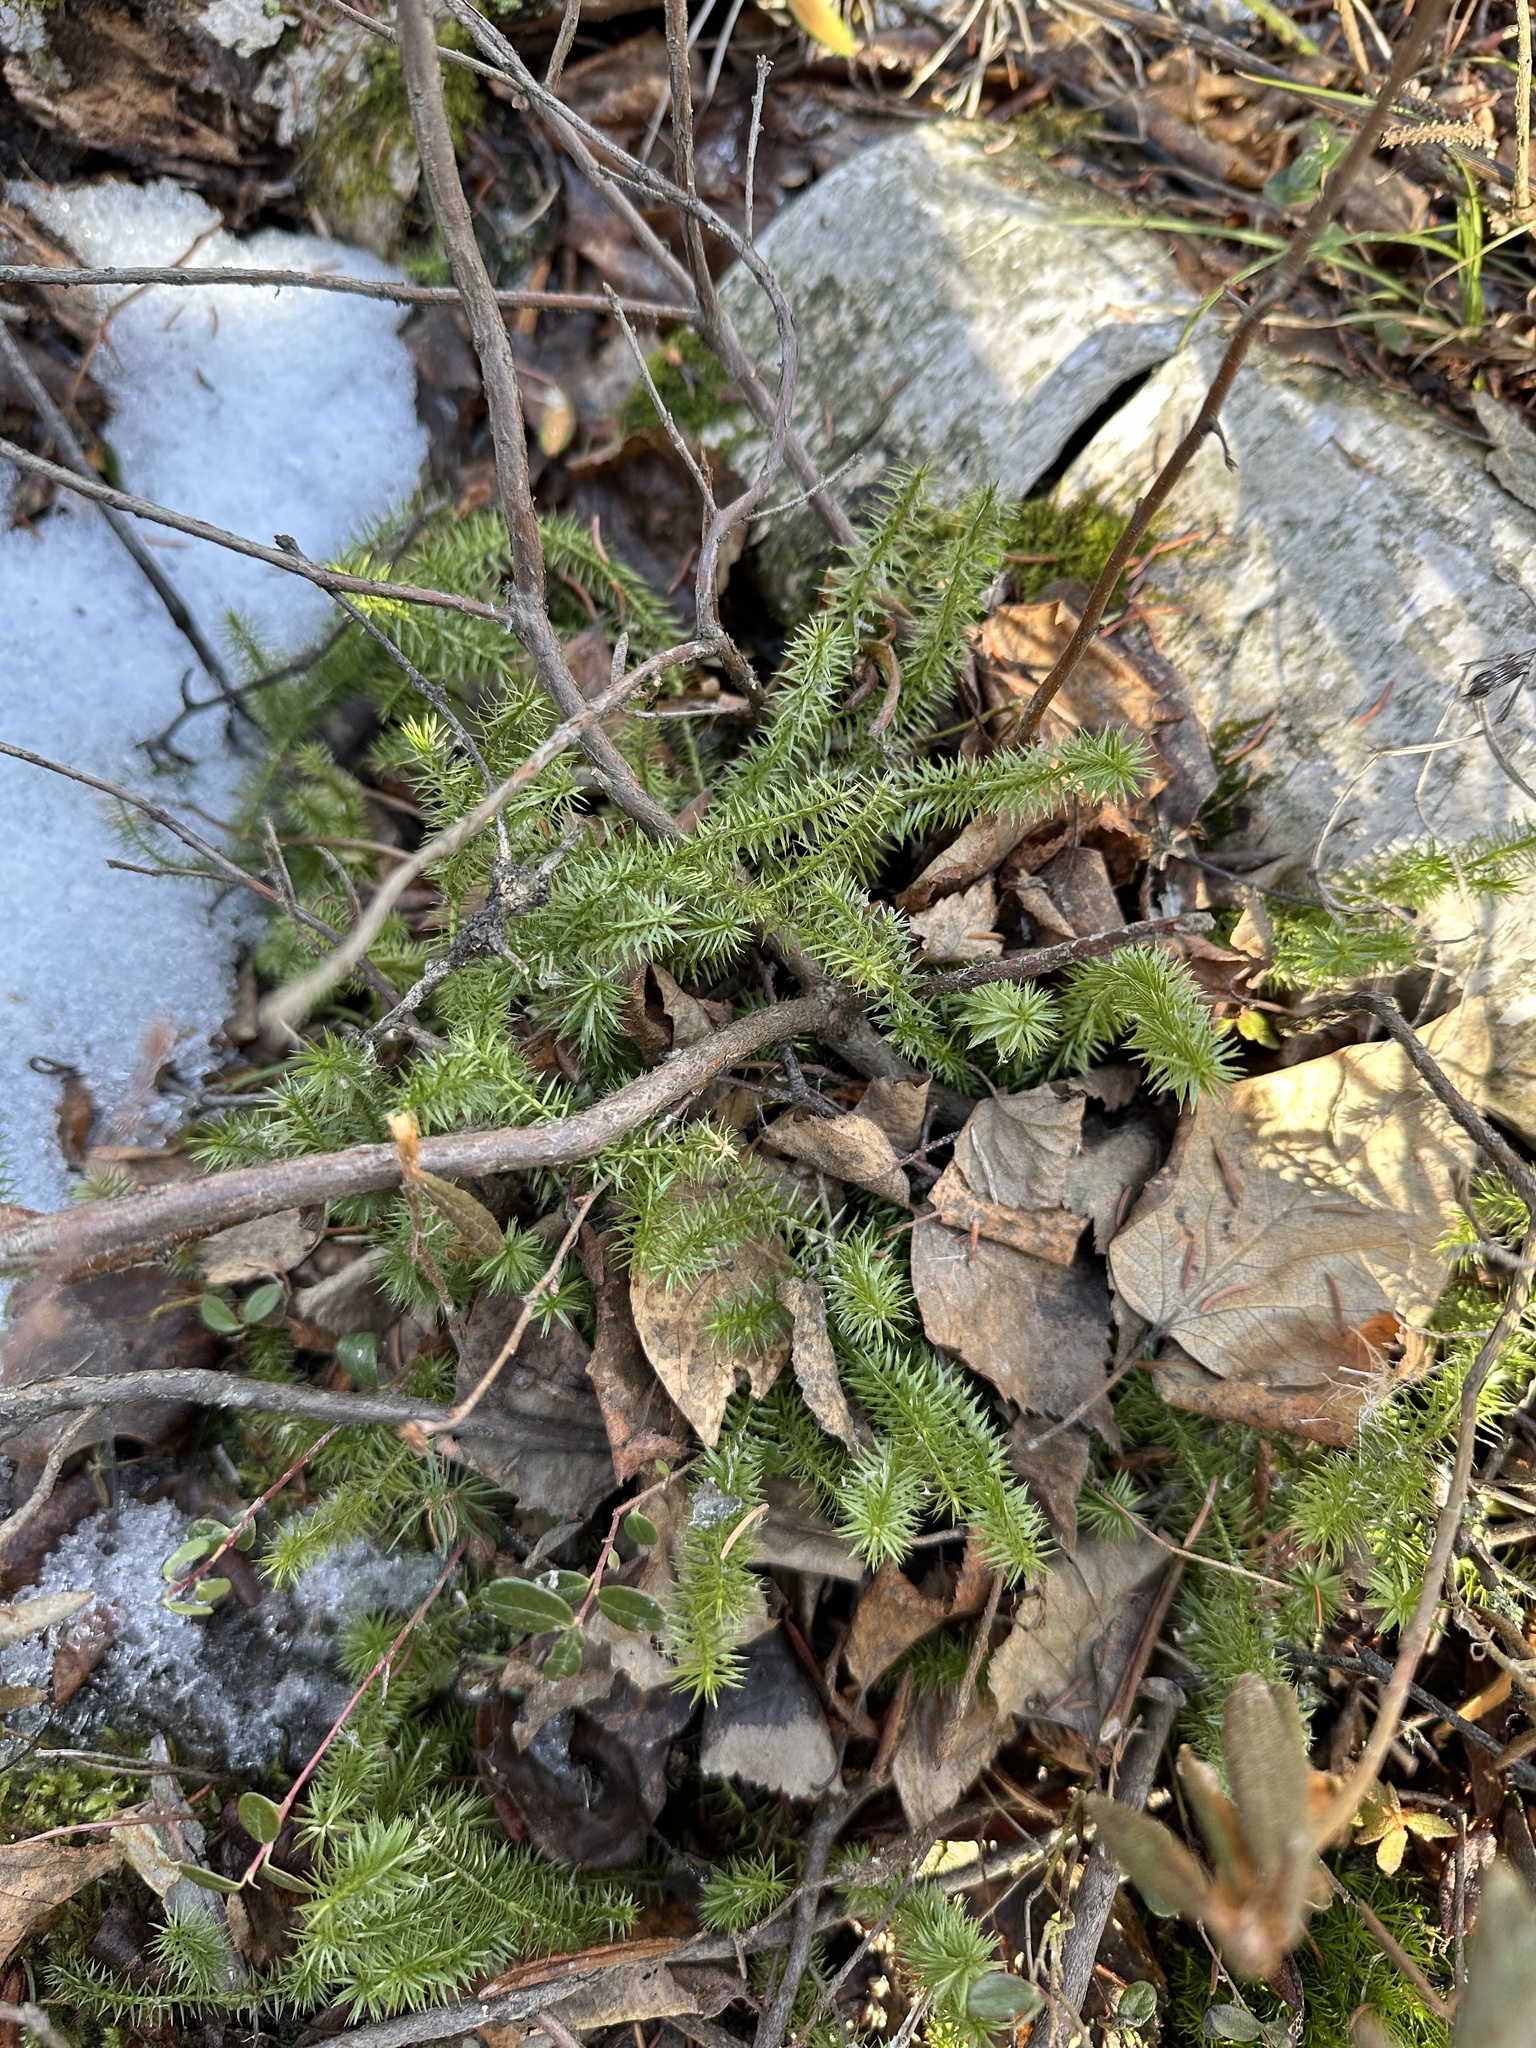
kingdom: Plantae
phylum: Tracheophyta
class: Lycopodiopsida
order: Lycopodiales
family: Lycopodiaceae
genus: Spinulum
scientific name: Spinulum annotinum
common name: Interrupted club-moss
